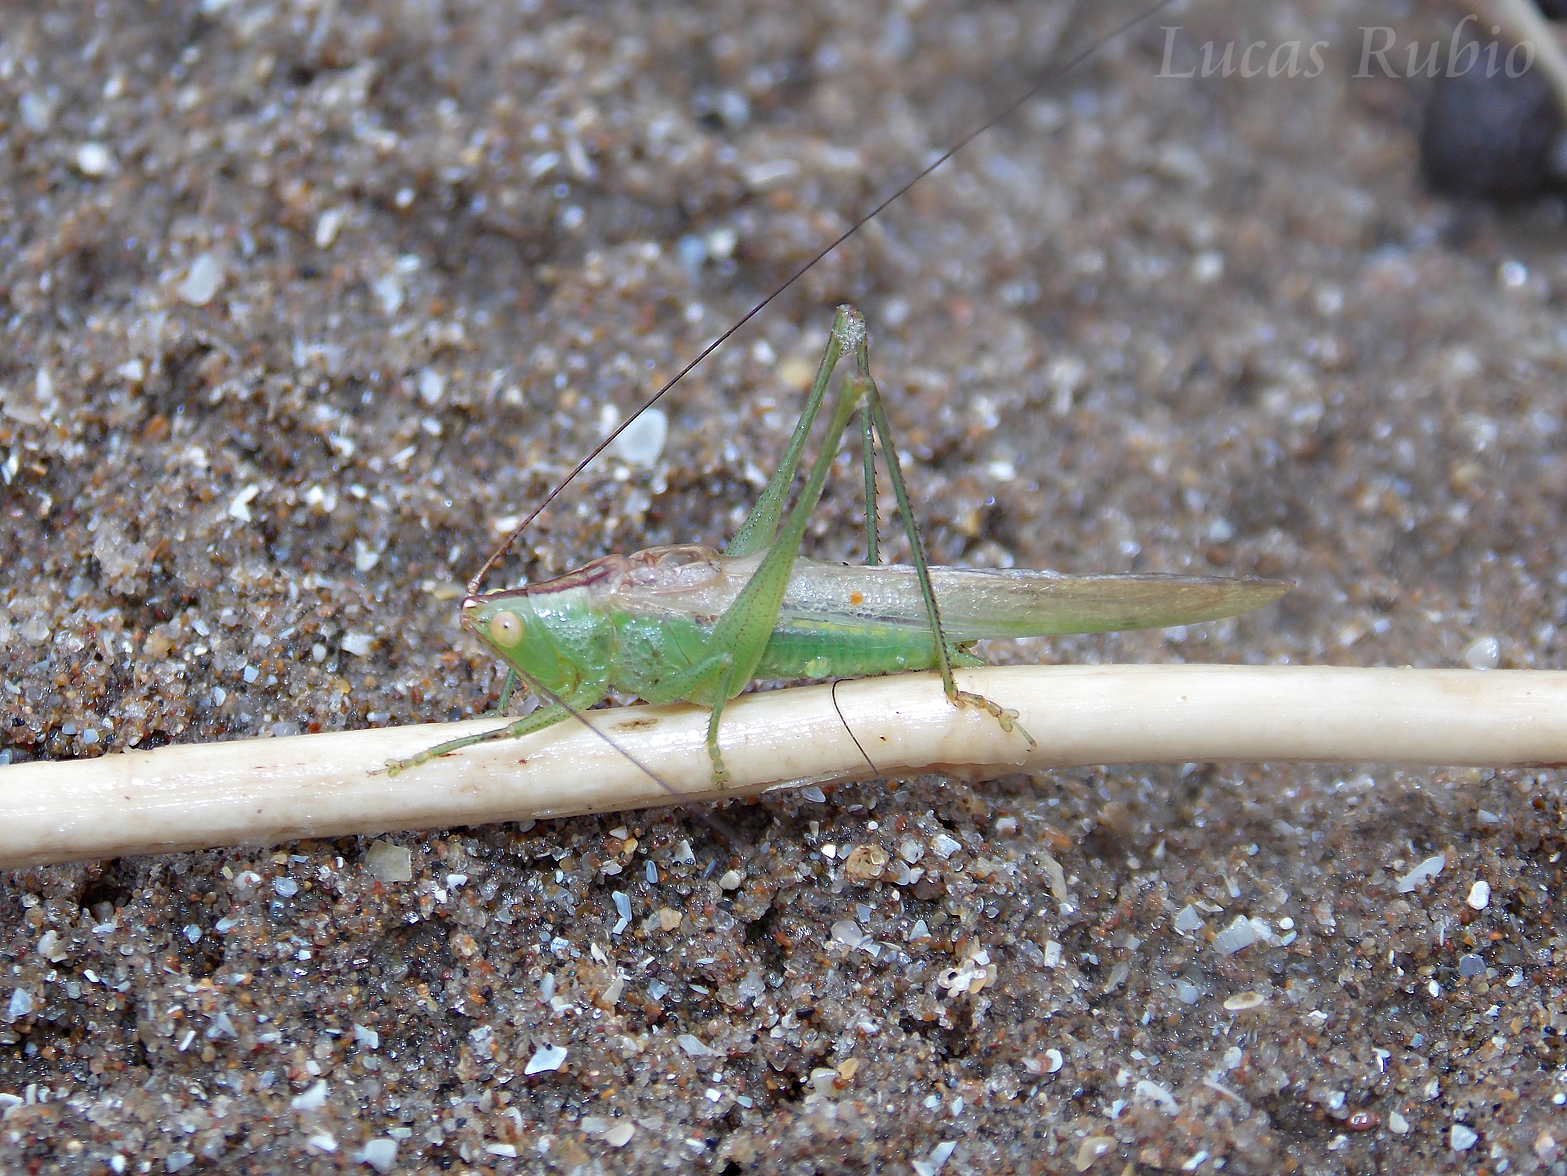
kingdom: Animalia
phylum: Arthropoda
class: Insecta
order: Orthoptera
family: Tettigoniidae
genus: Conocephalus
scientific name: Conocephalus longipes
